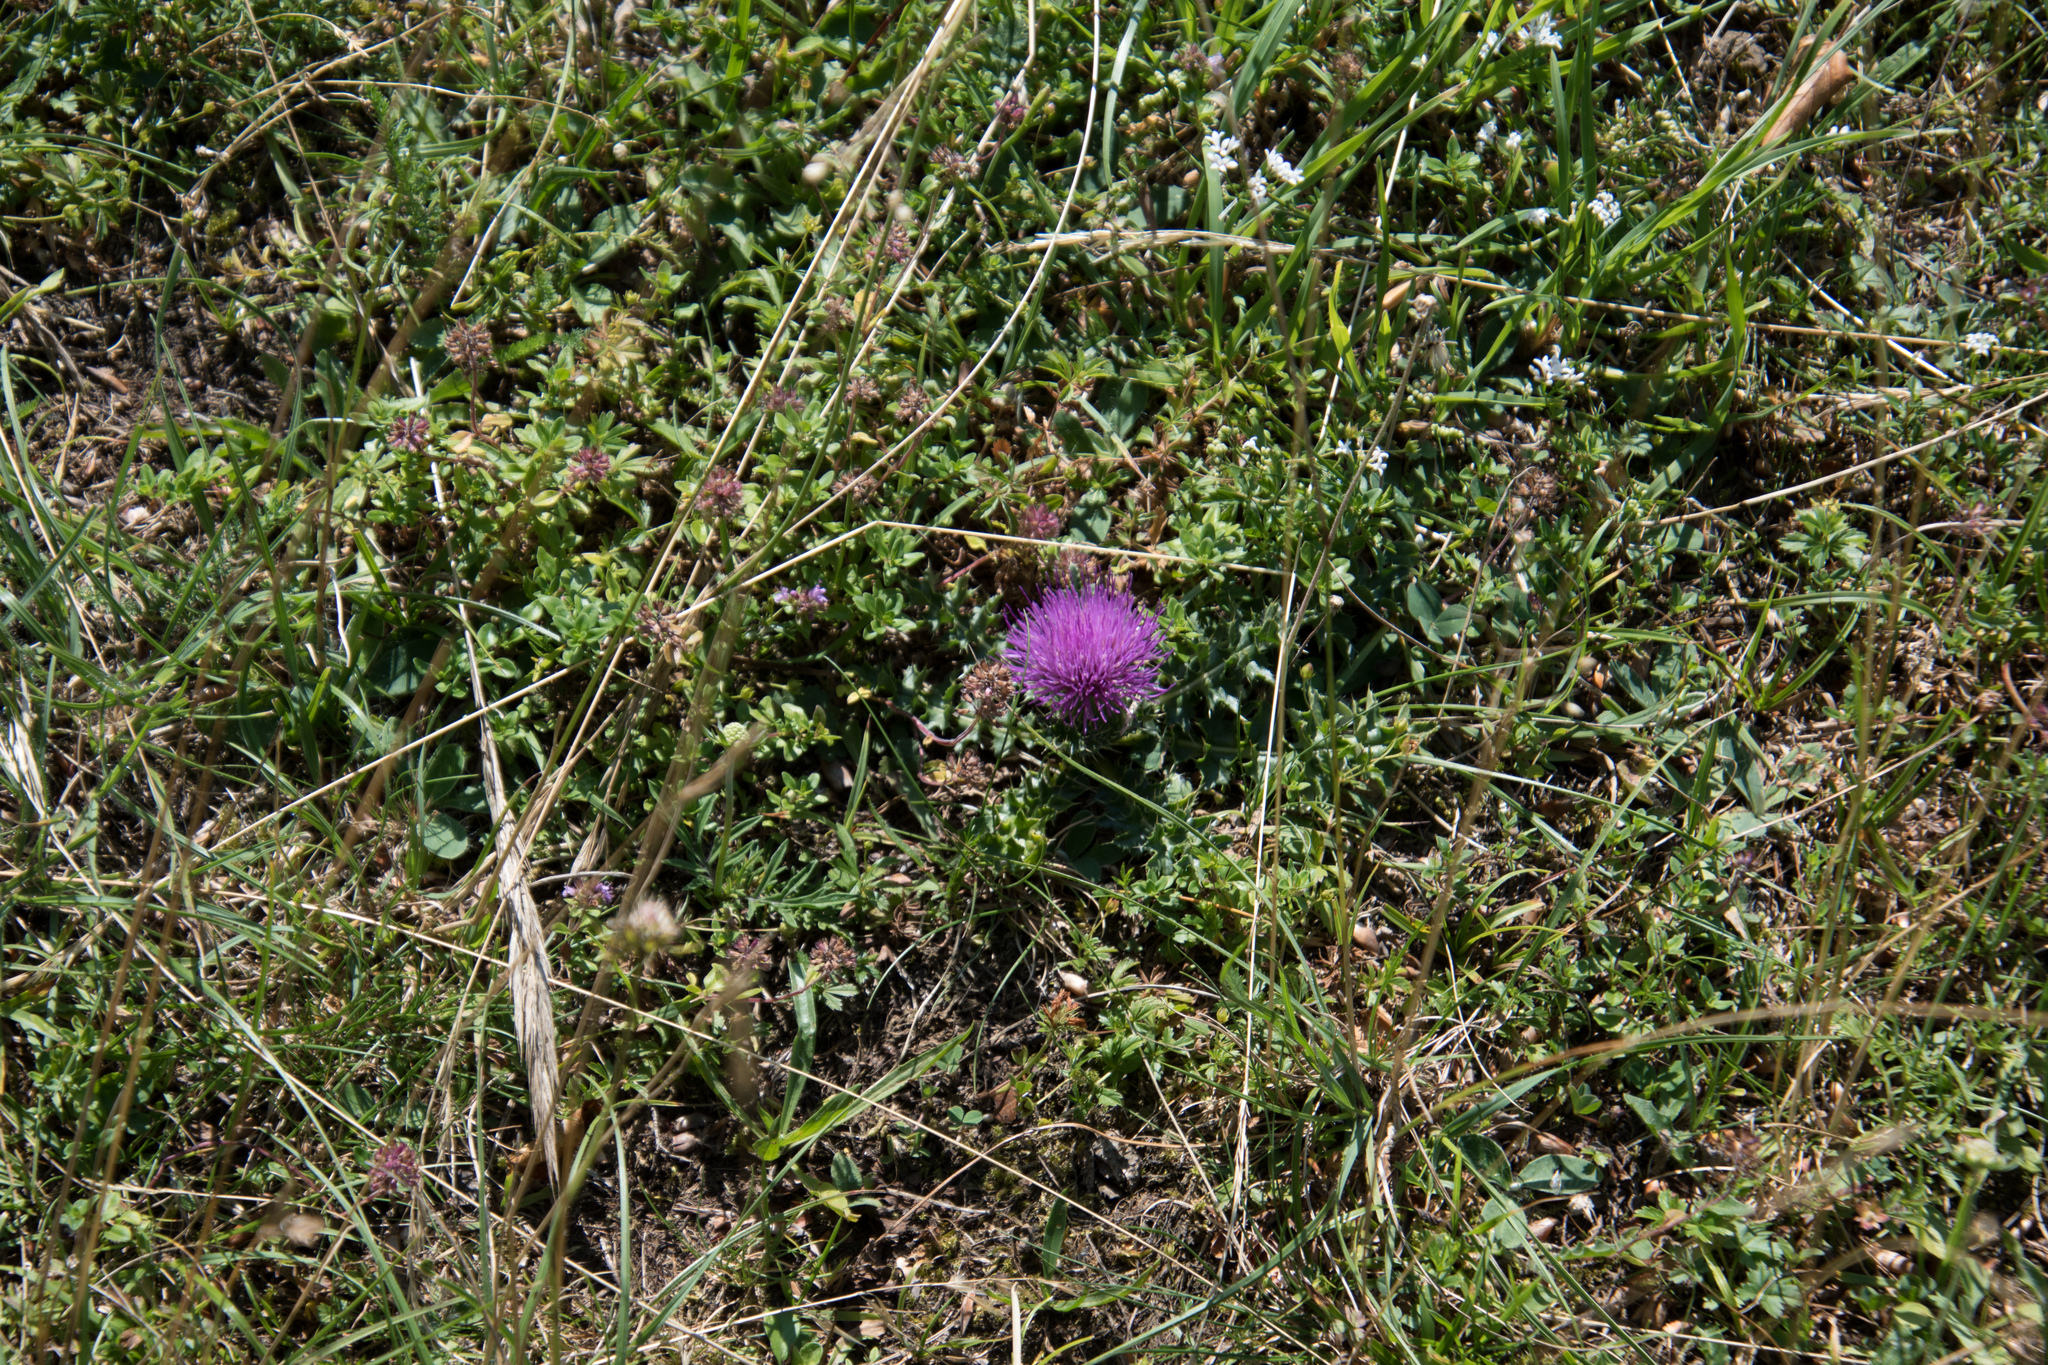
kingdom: Plantae
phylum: Tracheophyta
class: Magnoliopsida
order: Asterales
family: Asteraceae
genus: Cirsium
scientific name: Cirsium acaulon
